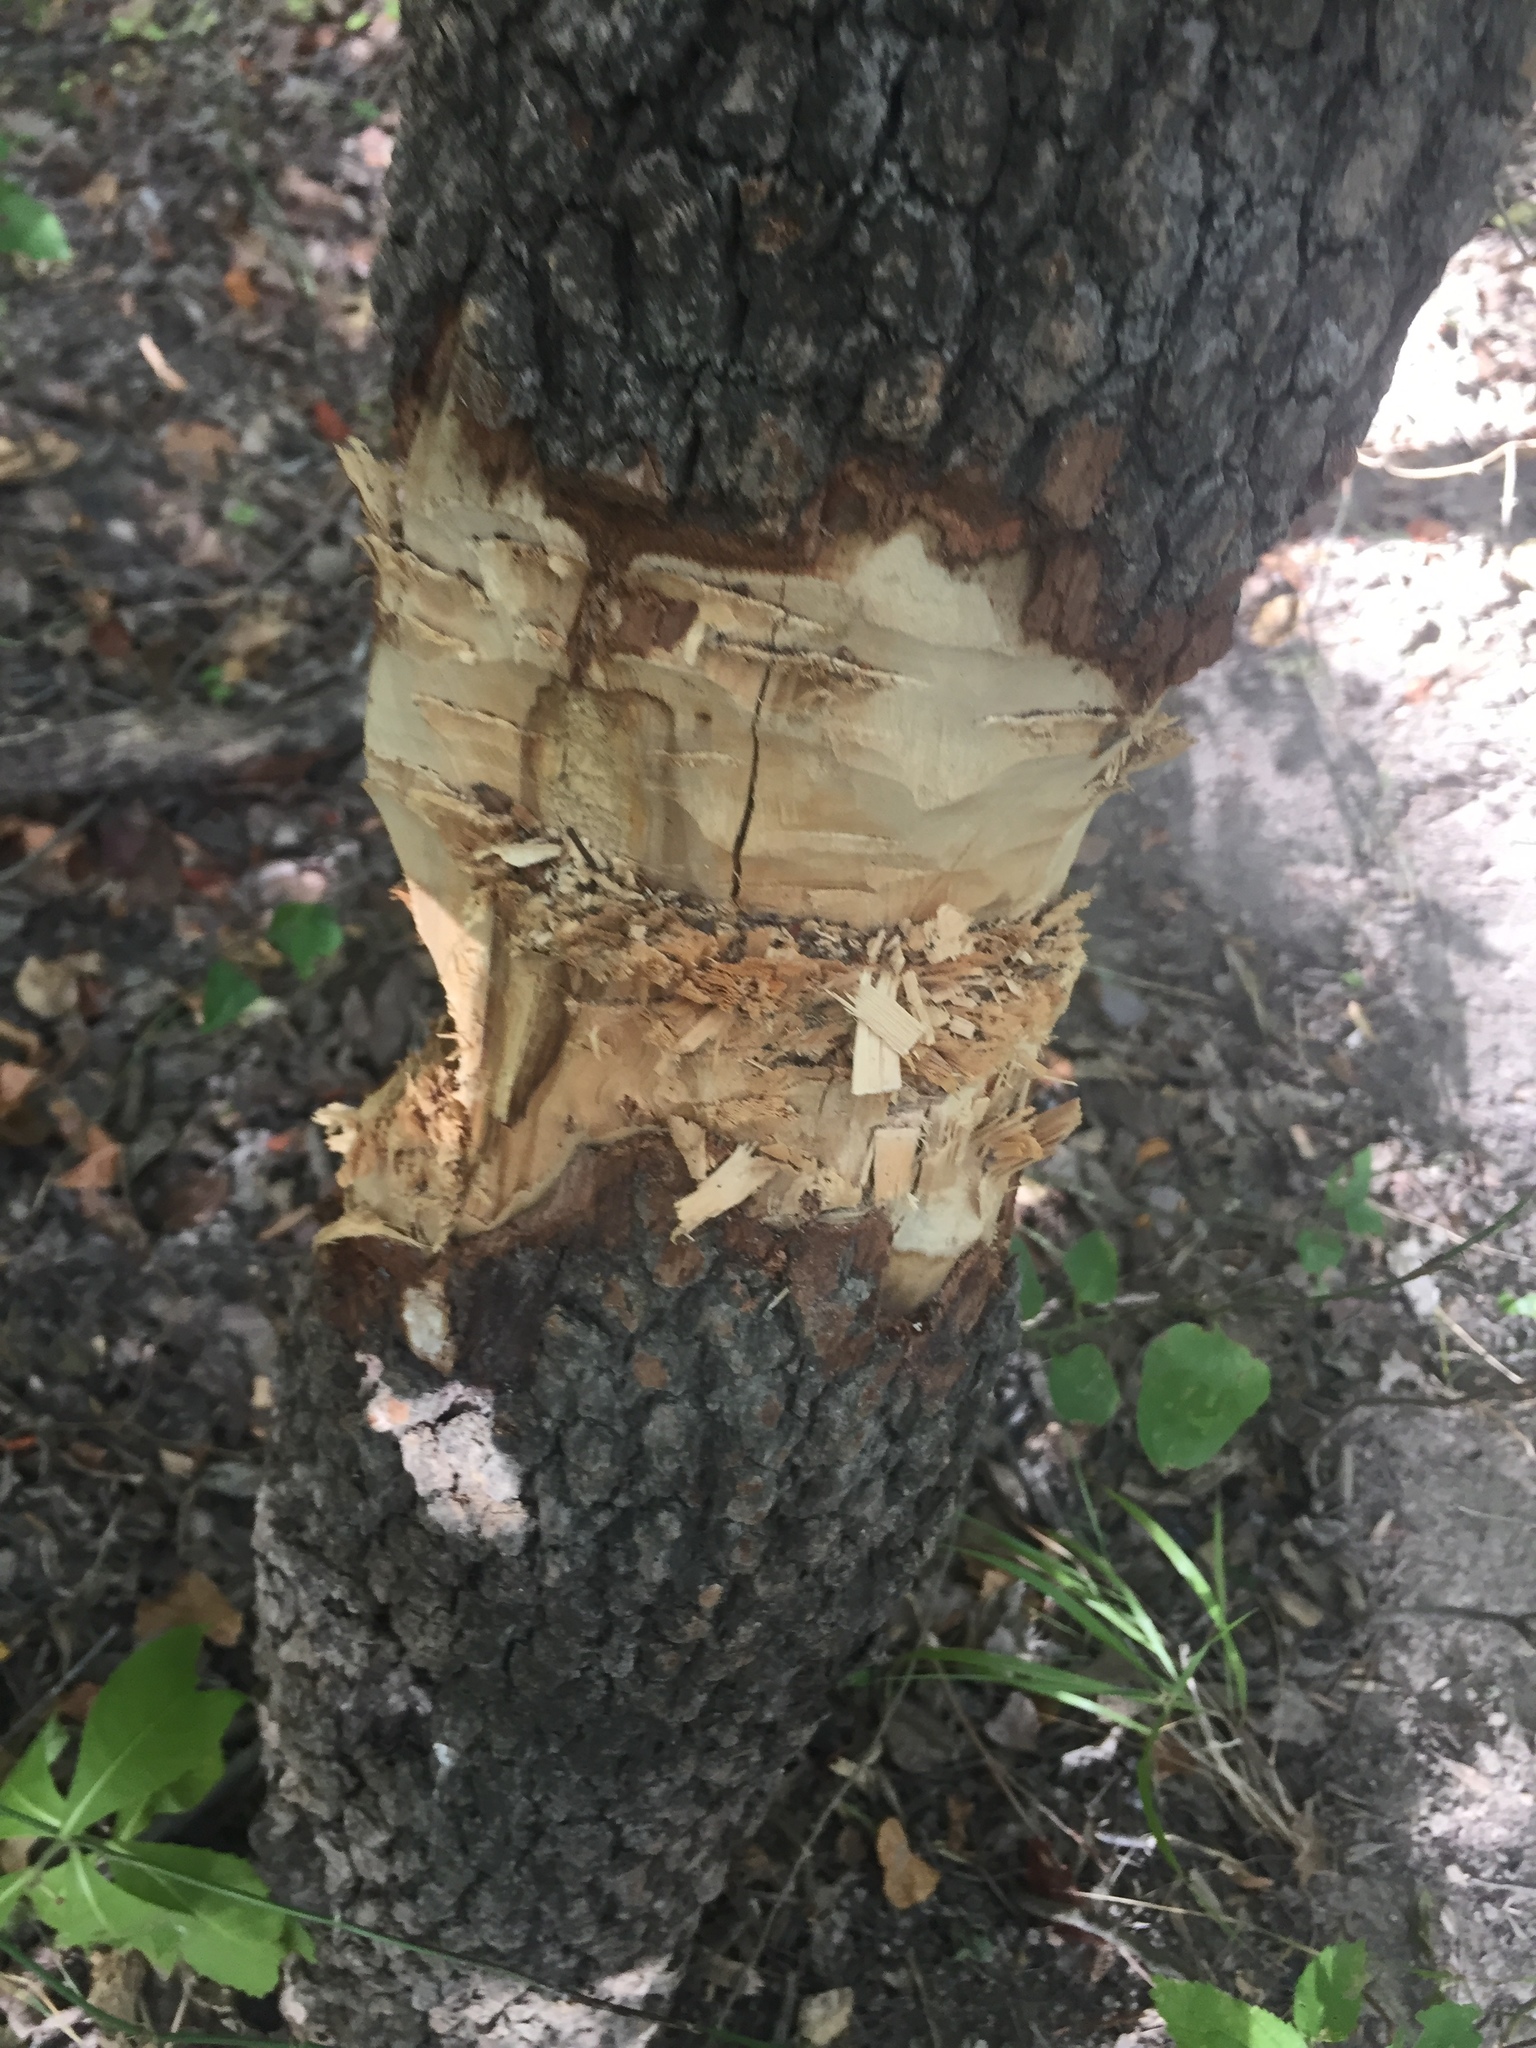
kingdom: Animalia
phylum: Chordata
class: Mammalia
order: Rodentia
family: Castoridae
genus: Castor
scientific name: Castor canadensis
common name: American beaver
